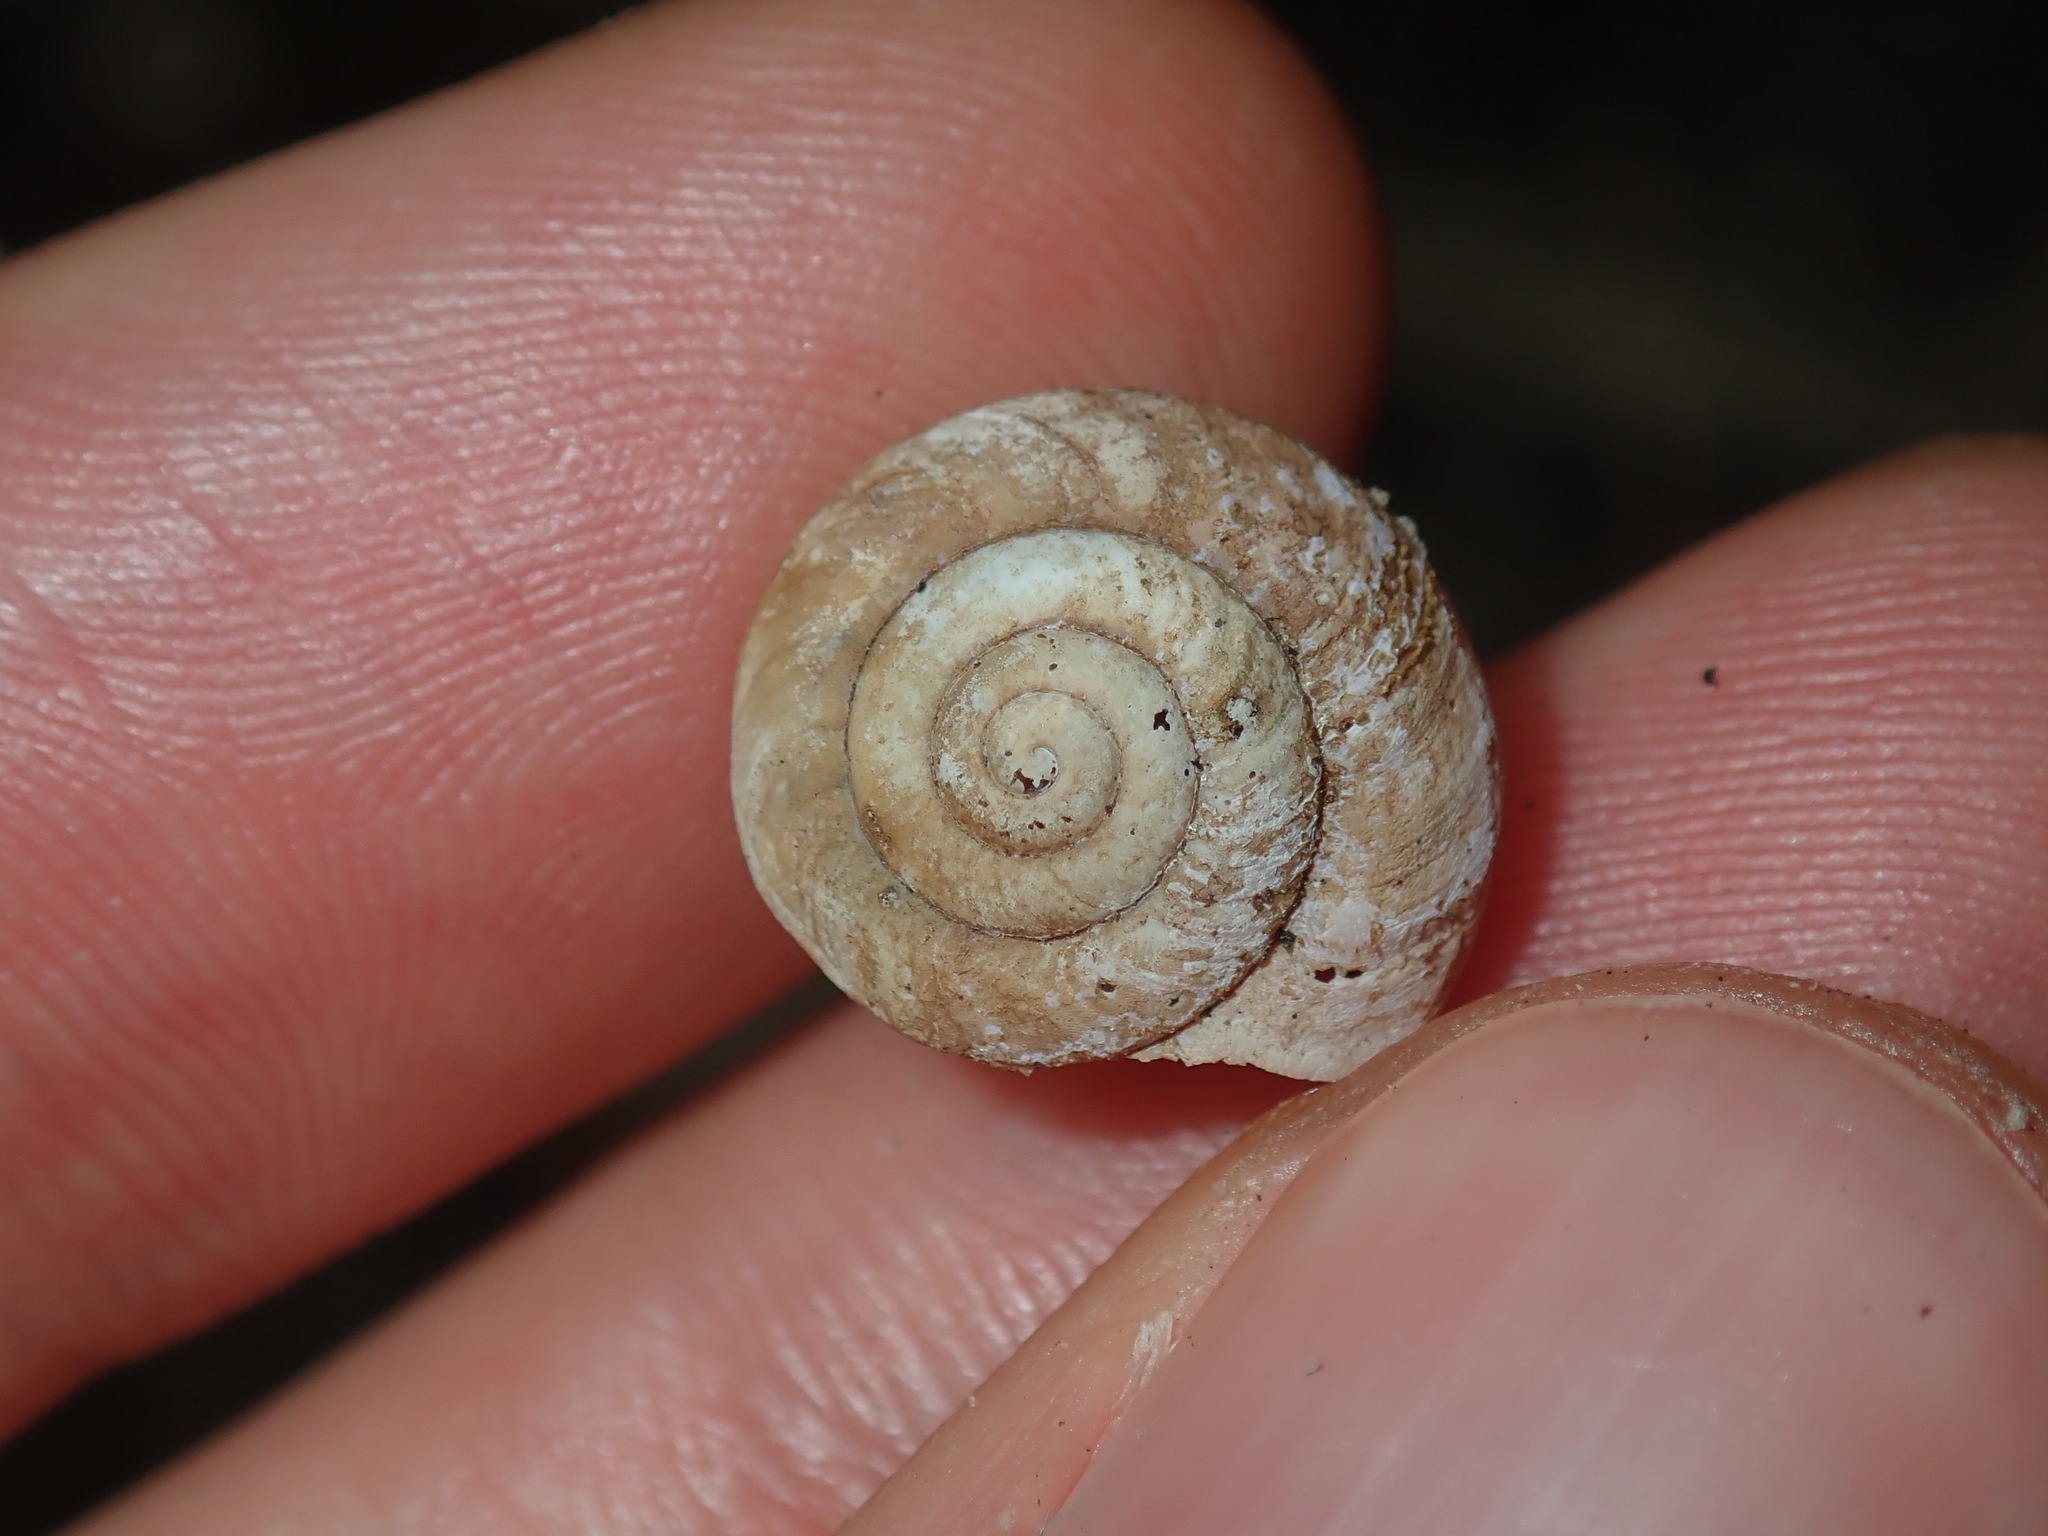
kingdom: Animalia
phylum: Mollusca
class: Gastropoda
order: Stylommatophora
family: Camaenidae
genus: Sauroconcha
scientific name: Sauroconcha sheai
